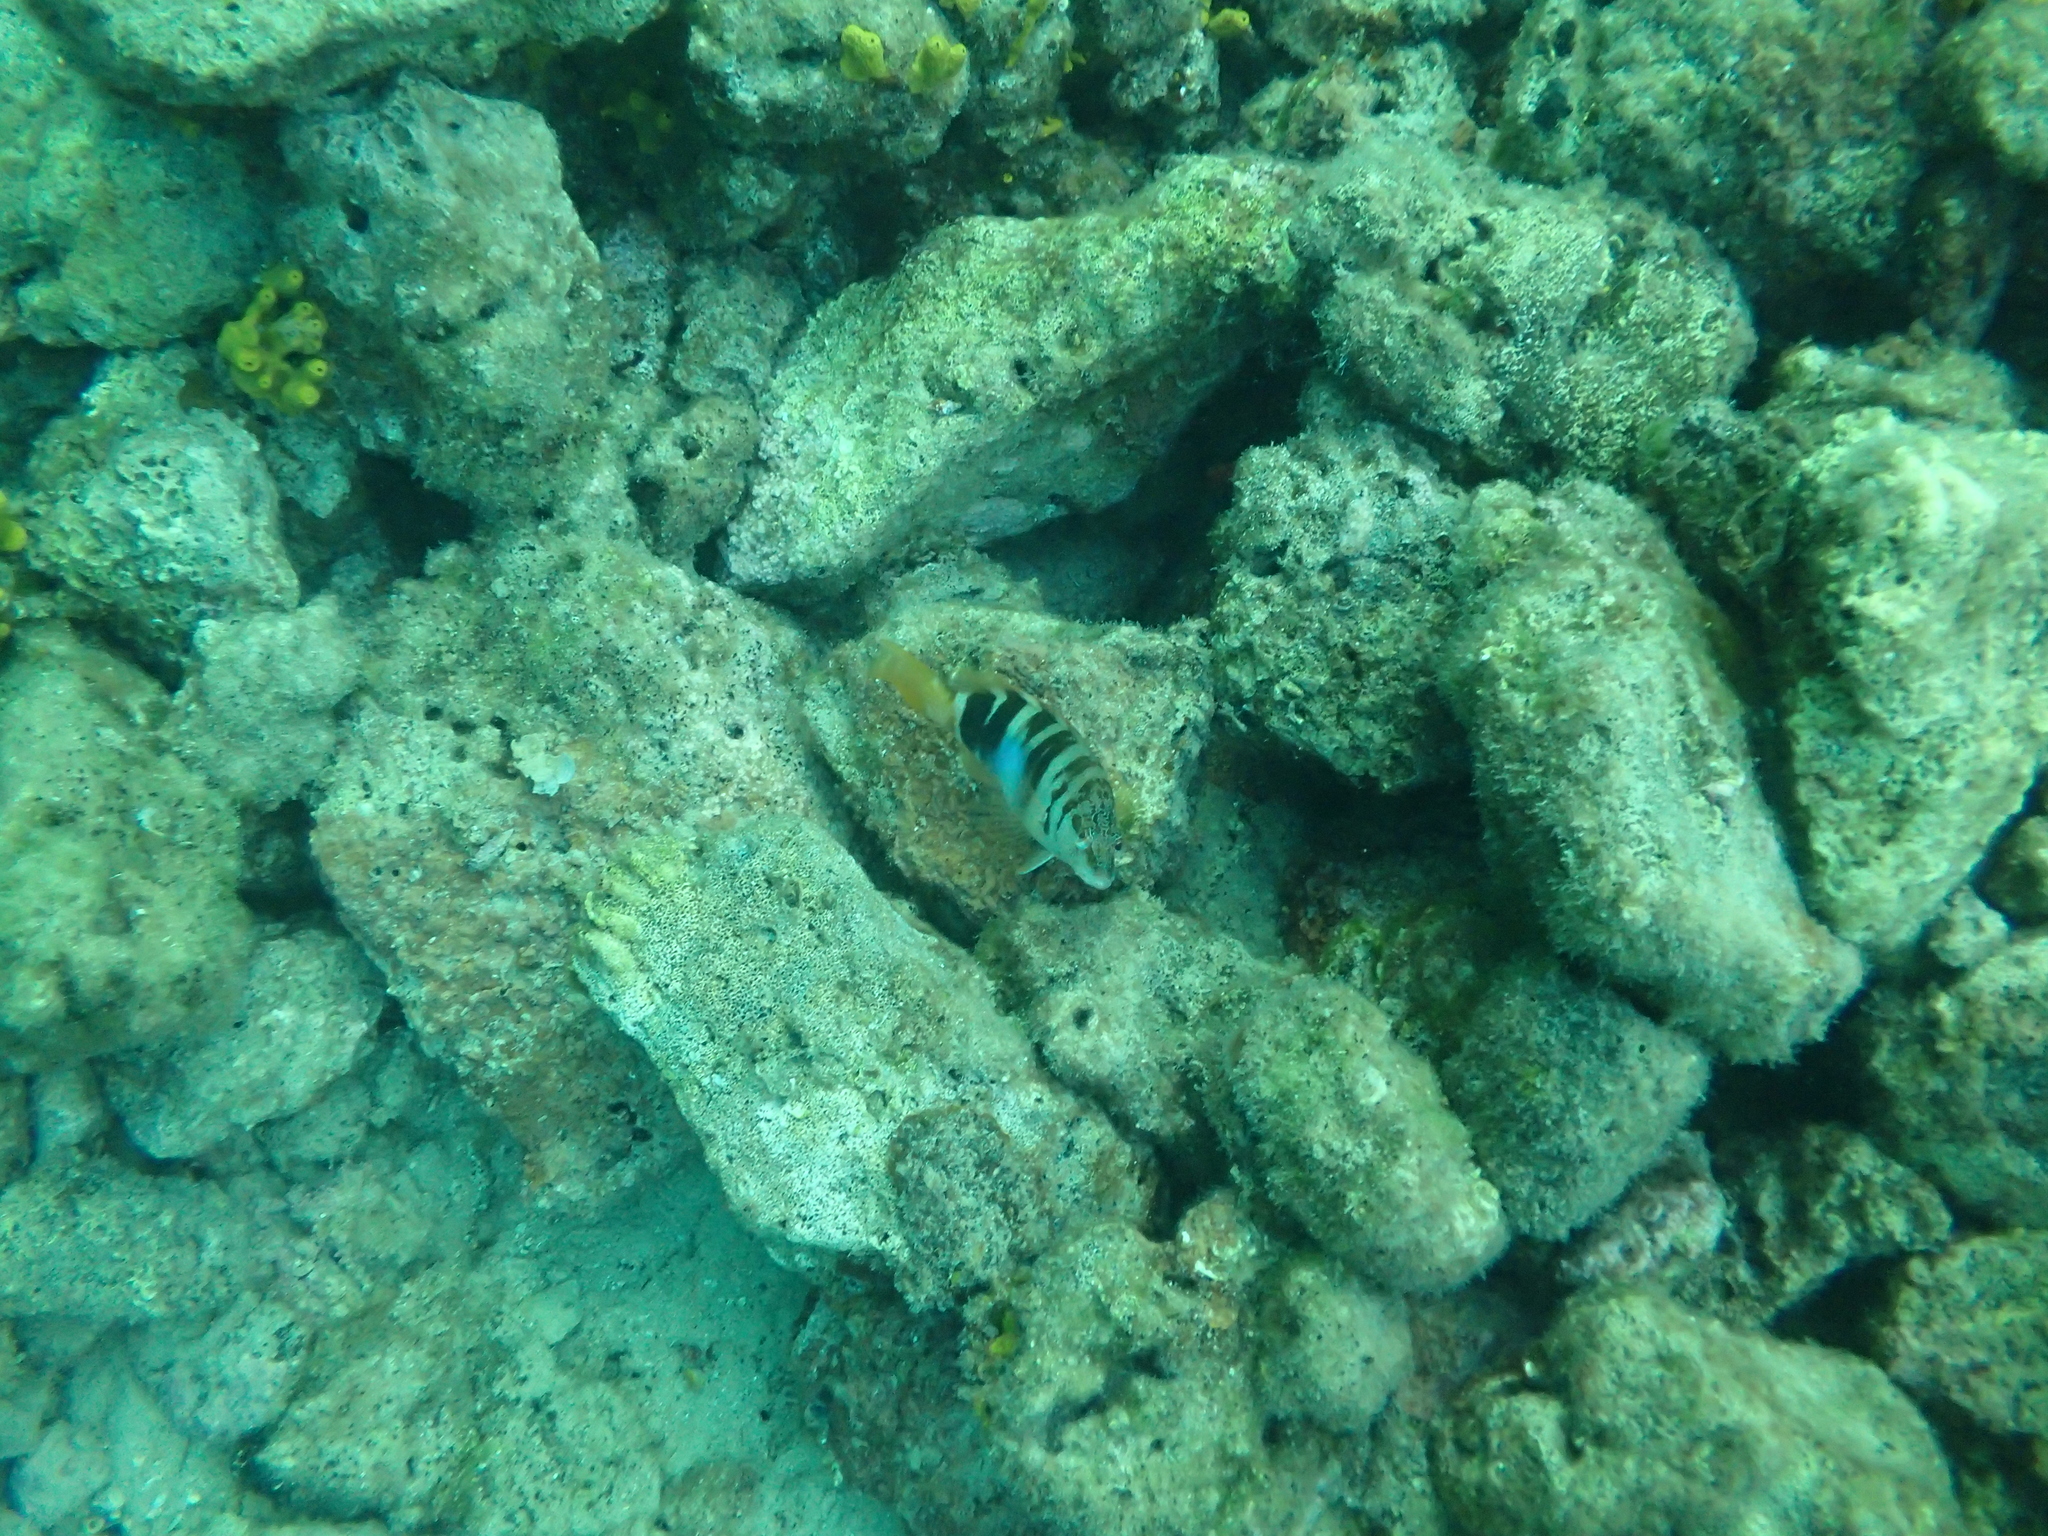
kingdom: Animalia
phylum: Chordata
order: Perciformes
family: Serranidae
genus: Serranus
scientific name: Serranus scriba
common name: Painted comber
